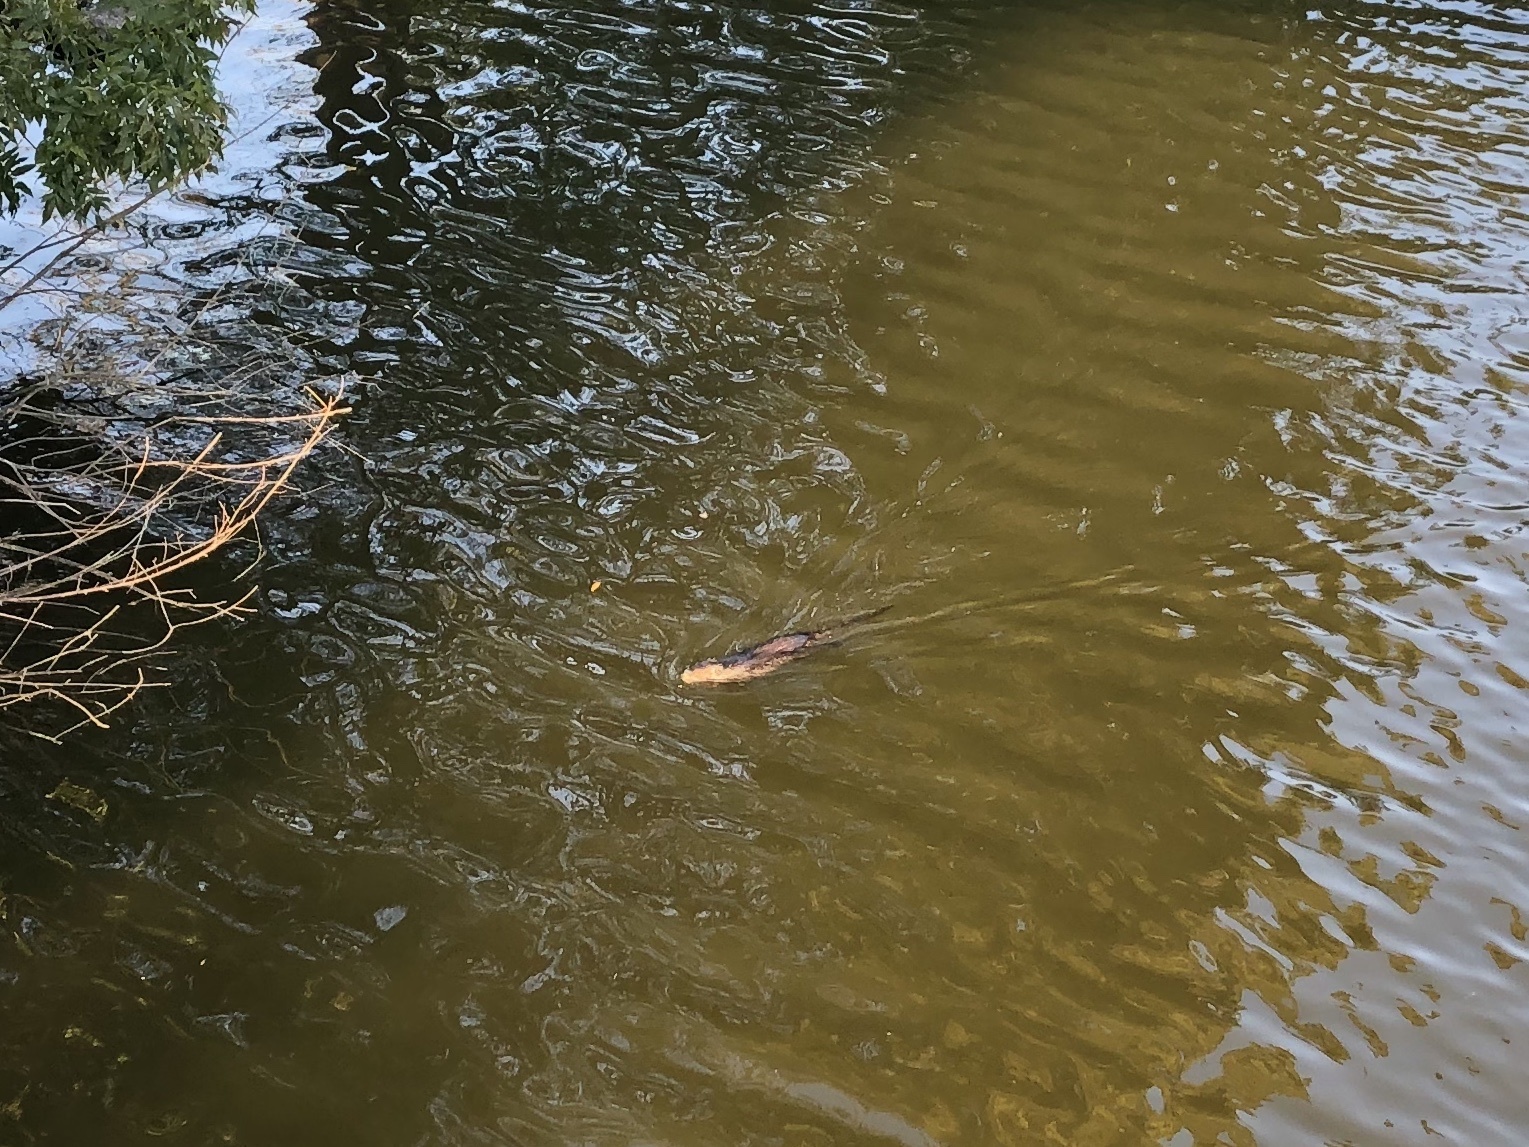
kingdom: Animalia
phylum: Chordata
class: Mammalia
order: Rodentia
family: Myocastoridae
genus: Myocastor
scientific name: Myocastor coypus
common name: Coypu
